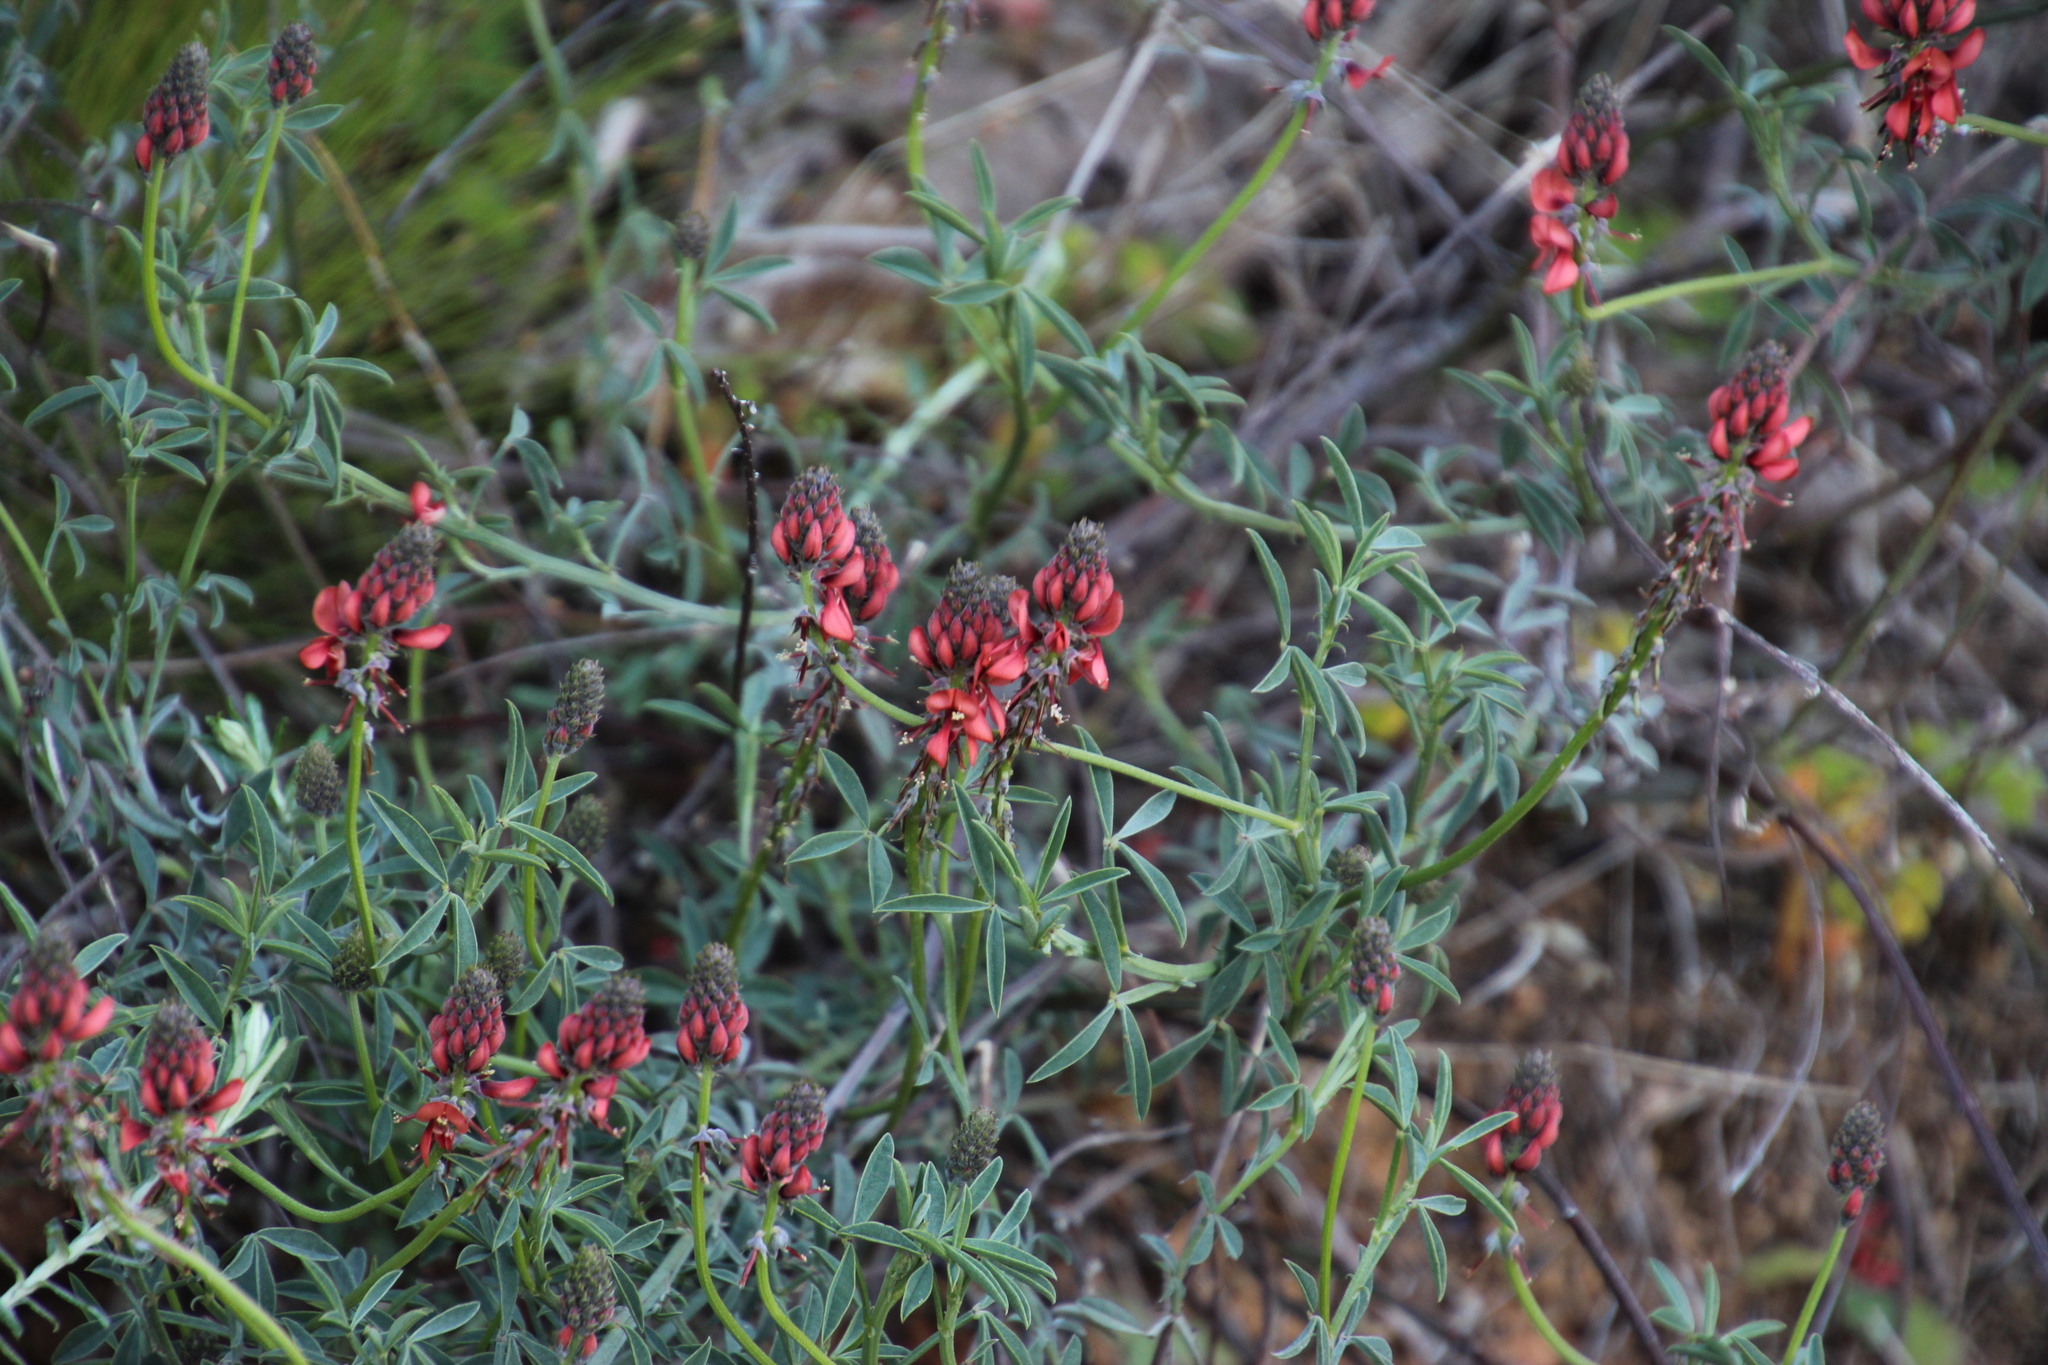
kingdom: Plantae
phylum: Tracheophyta
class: Magnoliopsida
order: Fabales
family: Fabaceae
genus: Indigofera
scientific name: Indigofera complanata
